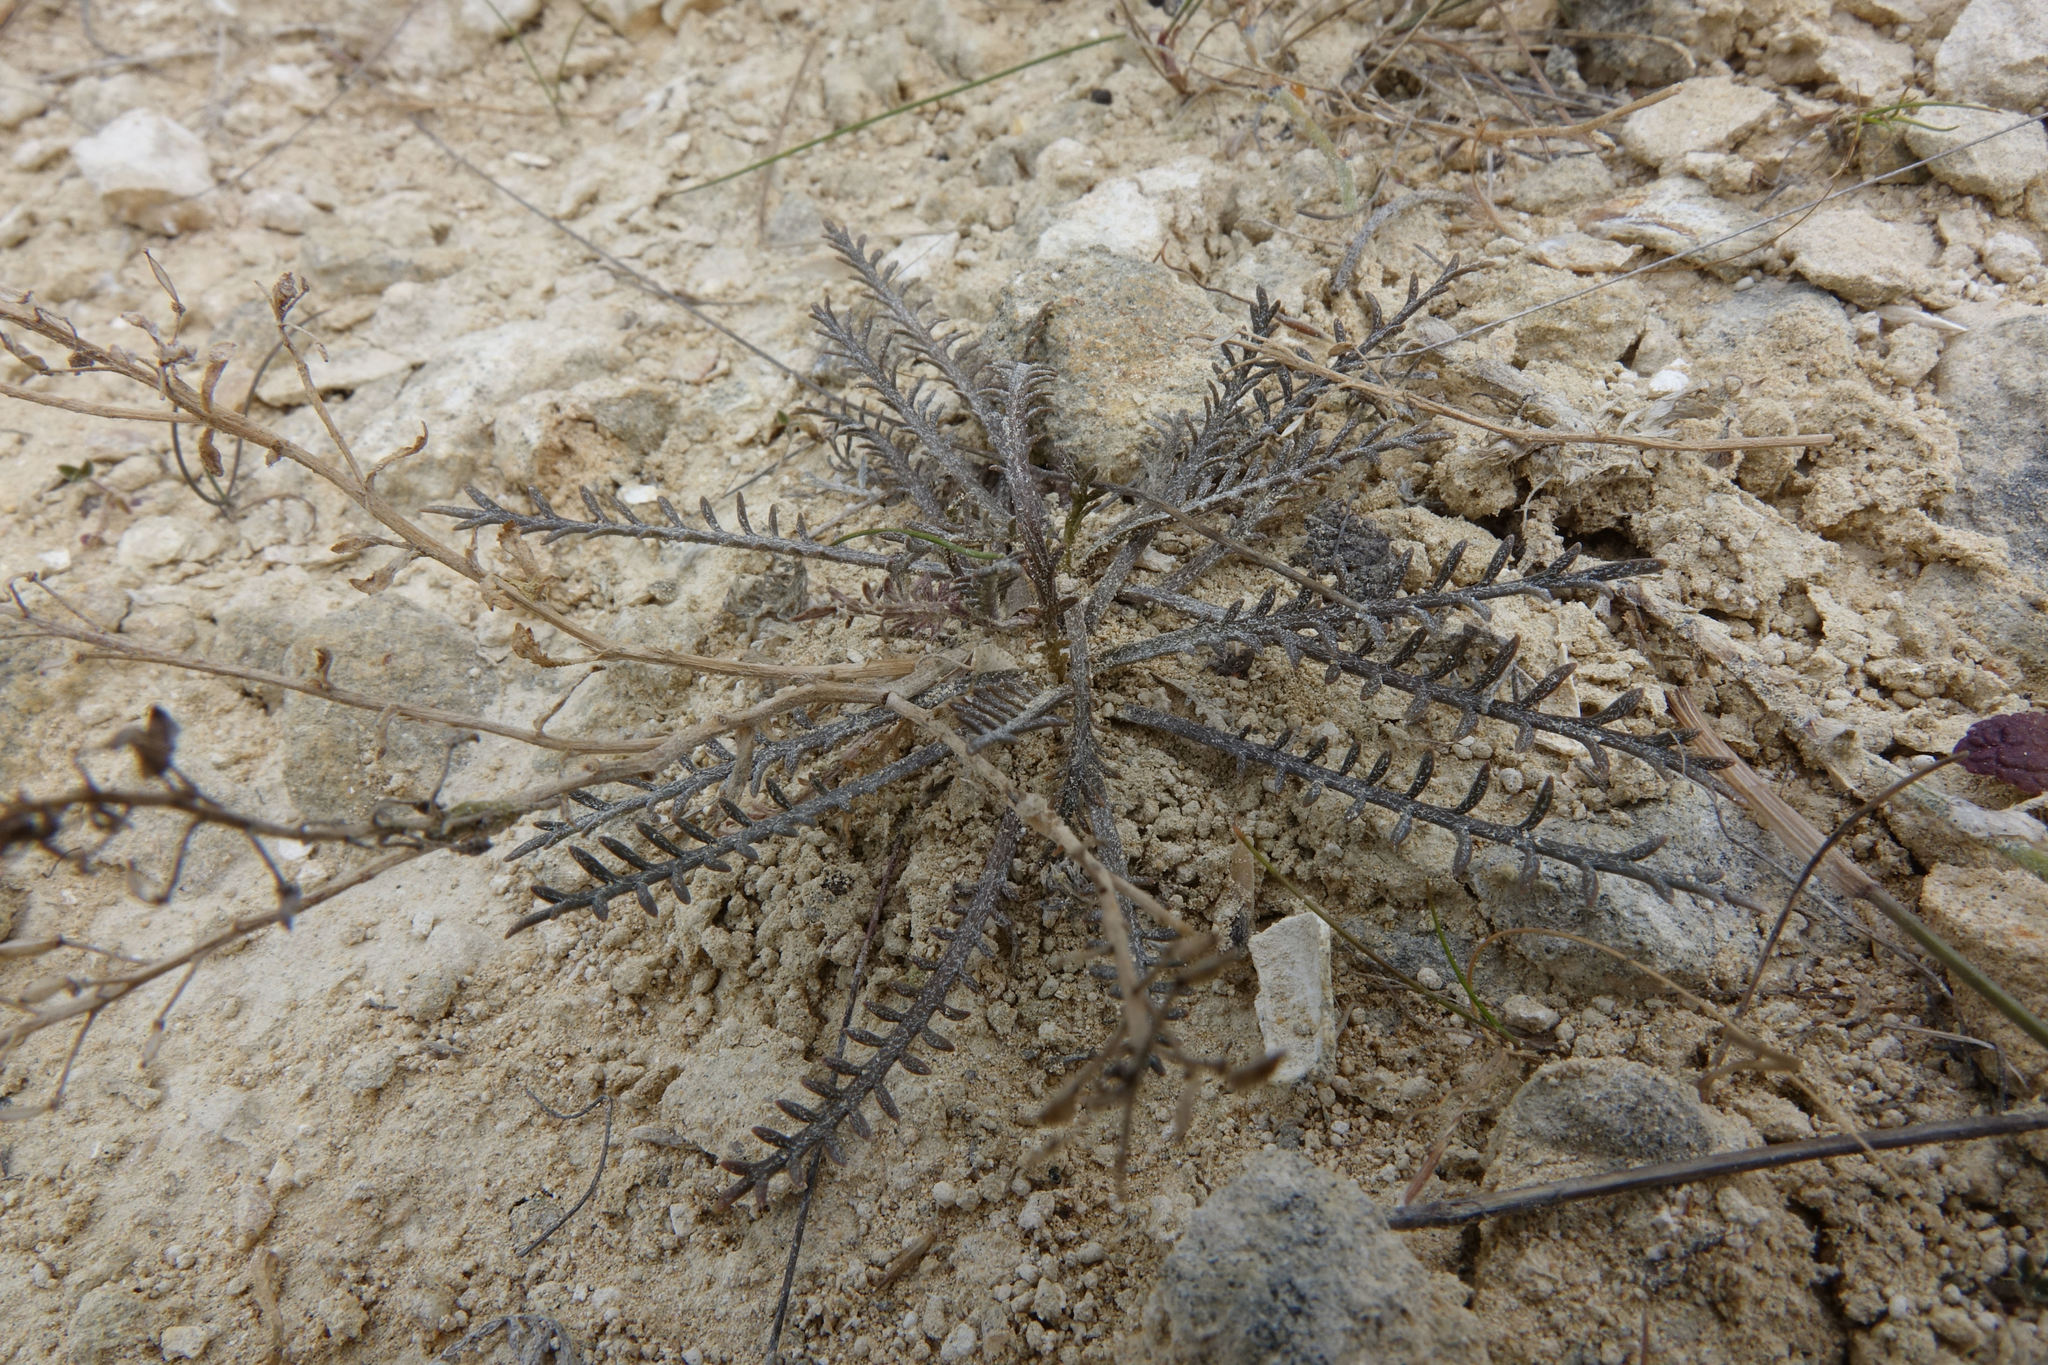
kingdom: Plantae
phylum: Tracheophyta
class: Magnoliopsida
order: Brassicales
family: Brassicaceae
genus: Lepidium
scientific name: Lepidium sisymbrioides
